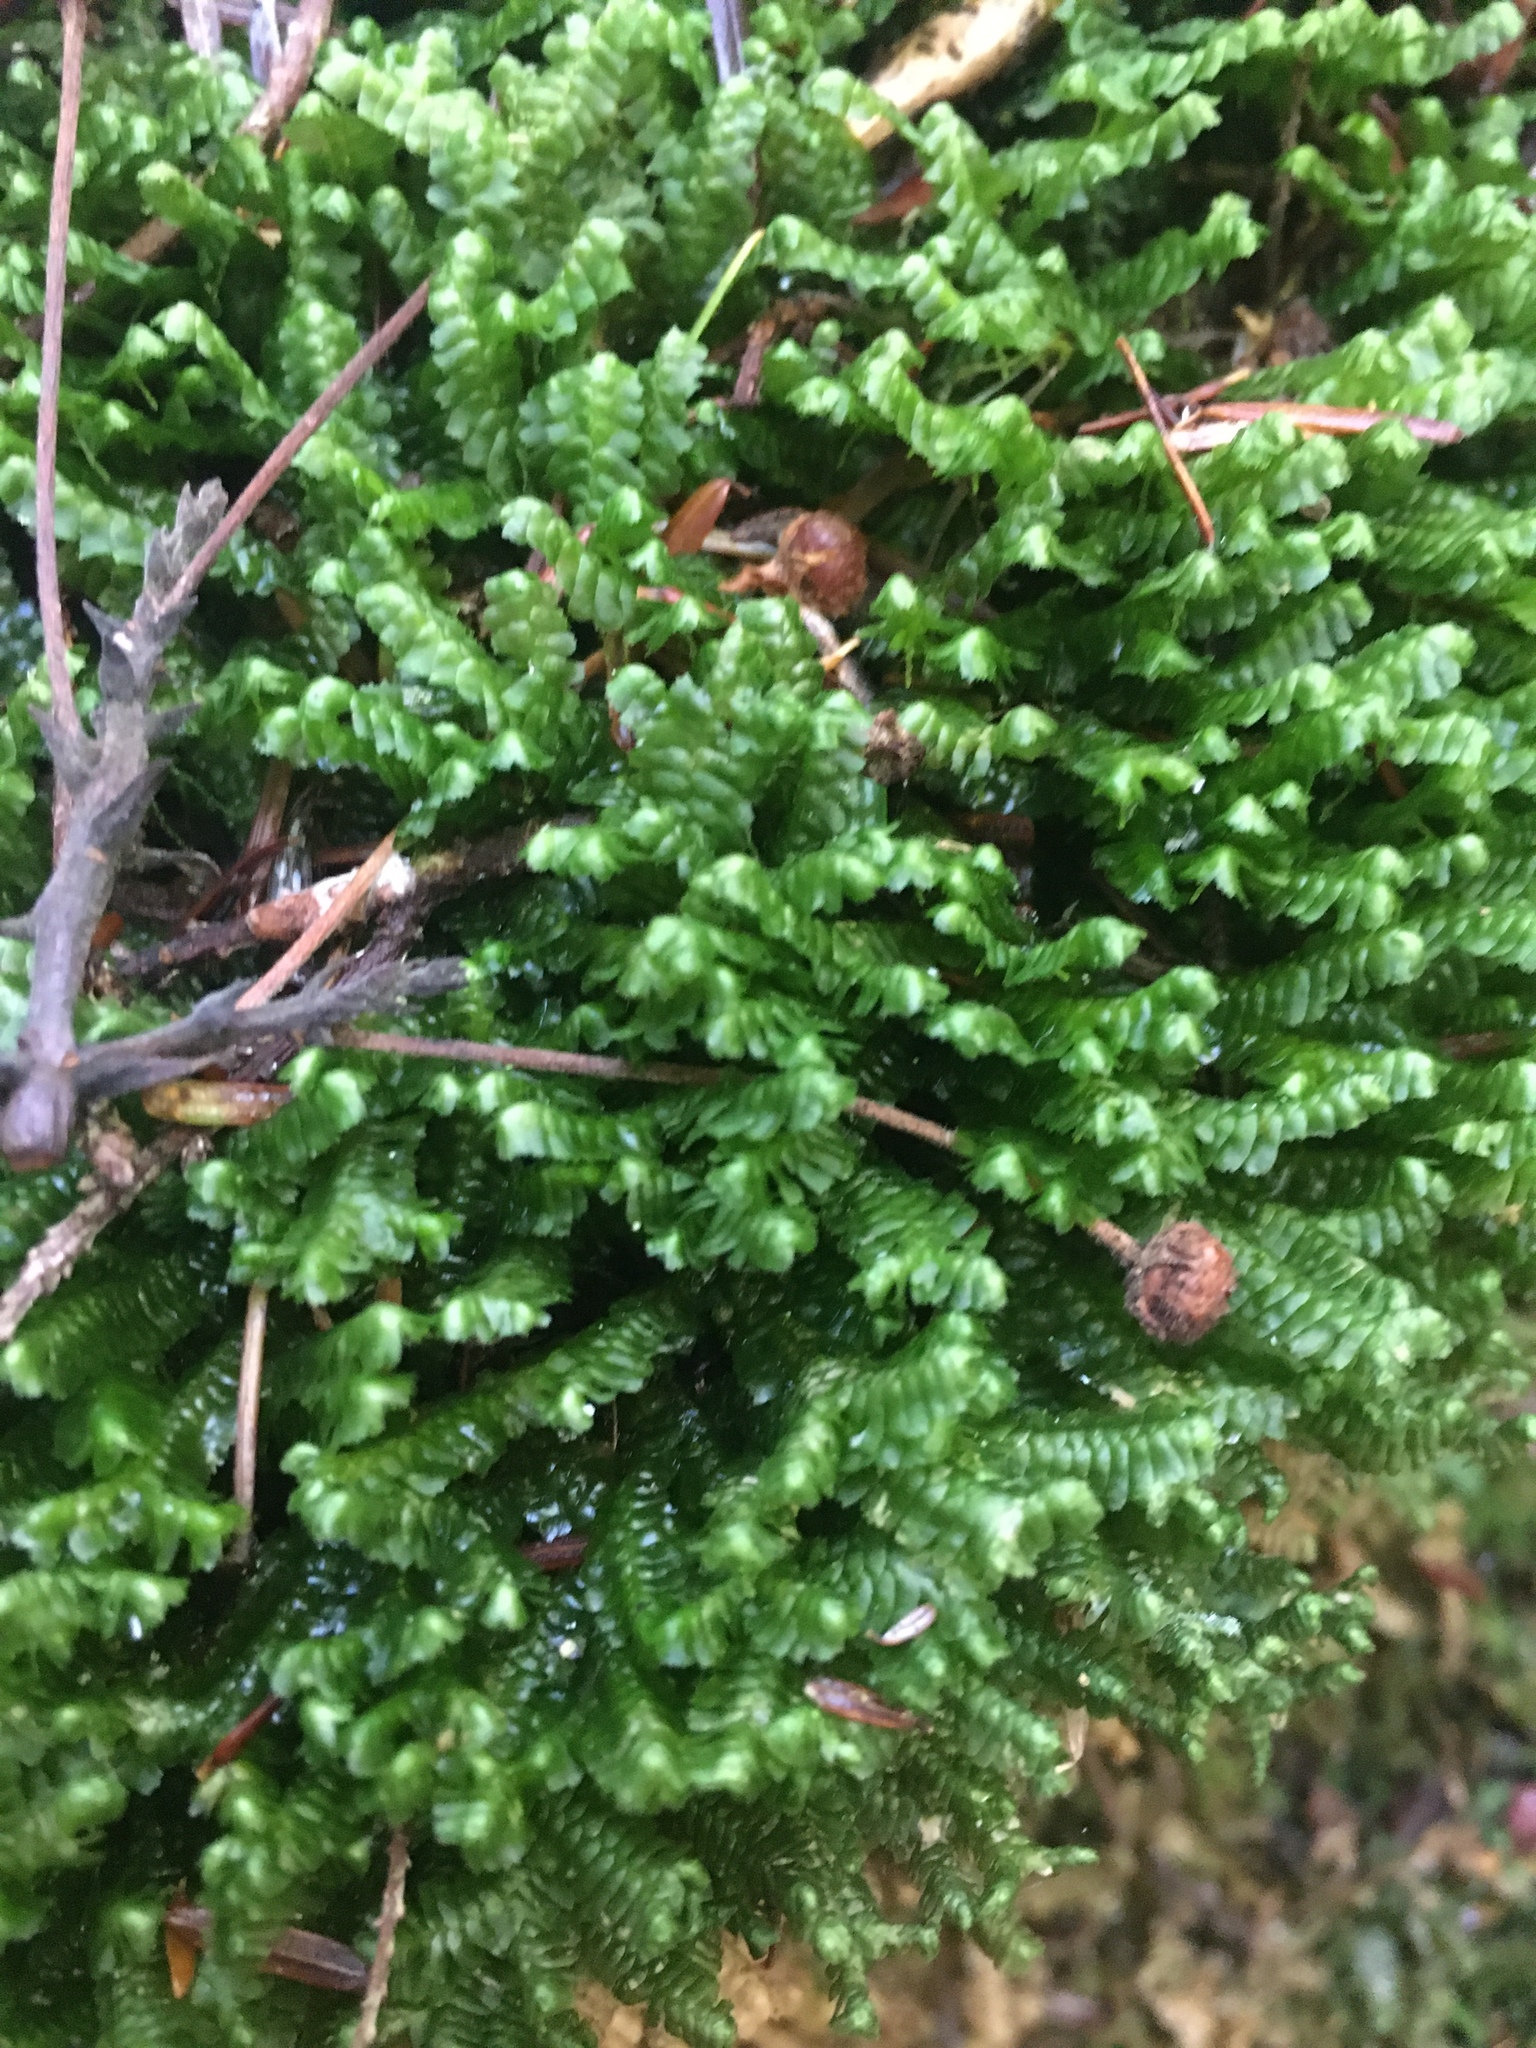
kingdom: Plantae
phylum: Marchantiophyta
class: Jungermanniopsida
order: Jungermanniales
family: Lepidoziaceae
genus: Bazzania
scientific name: Bazzania trilobata
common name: Three-lobed whipwort
